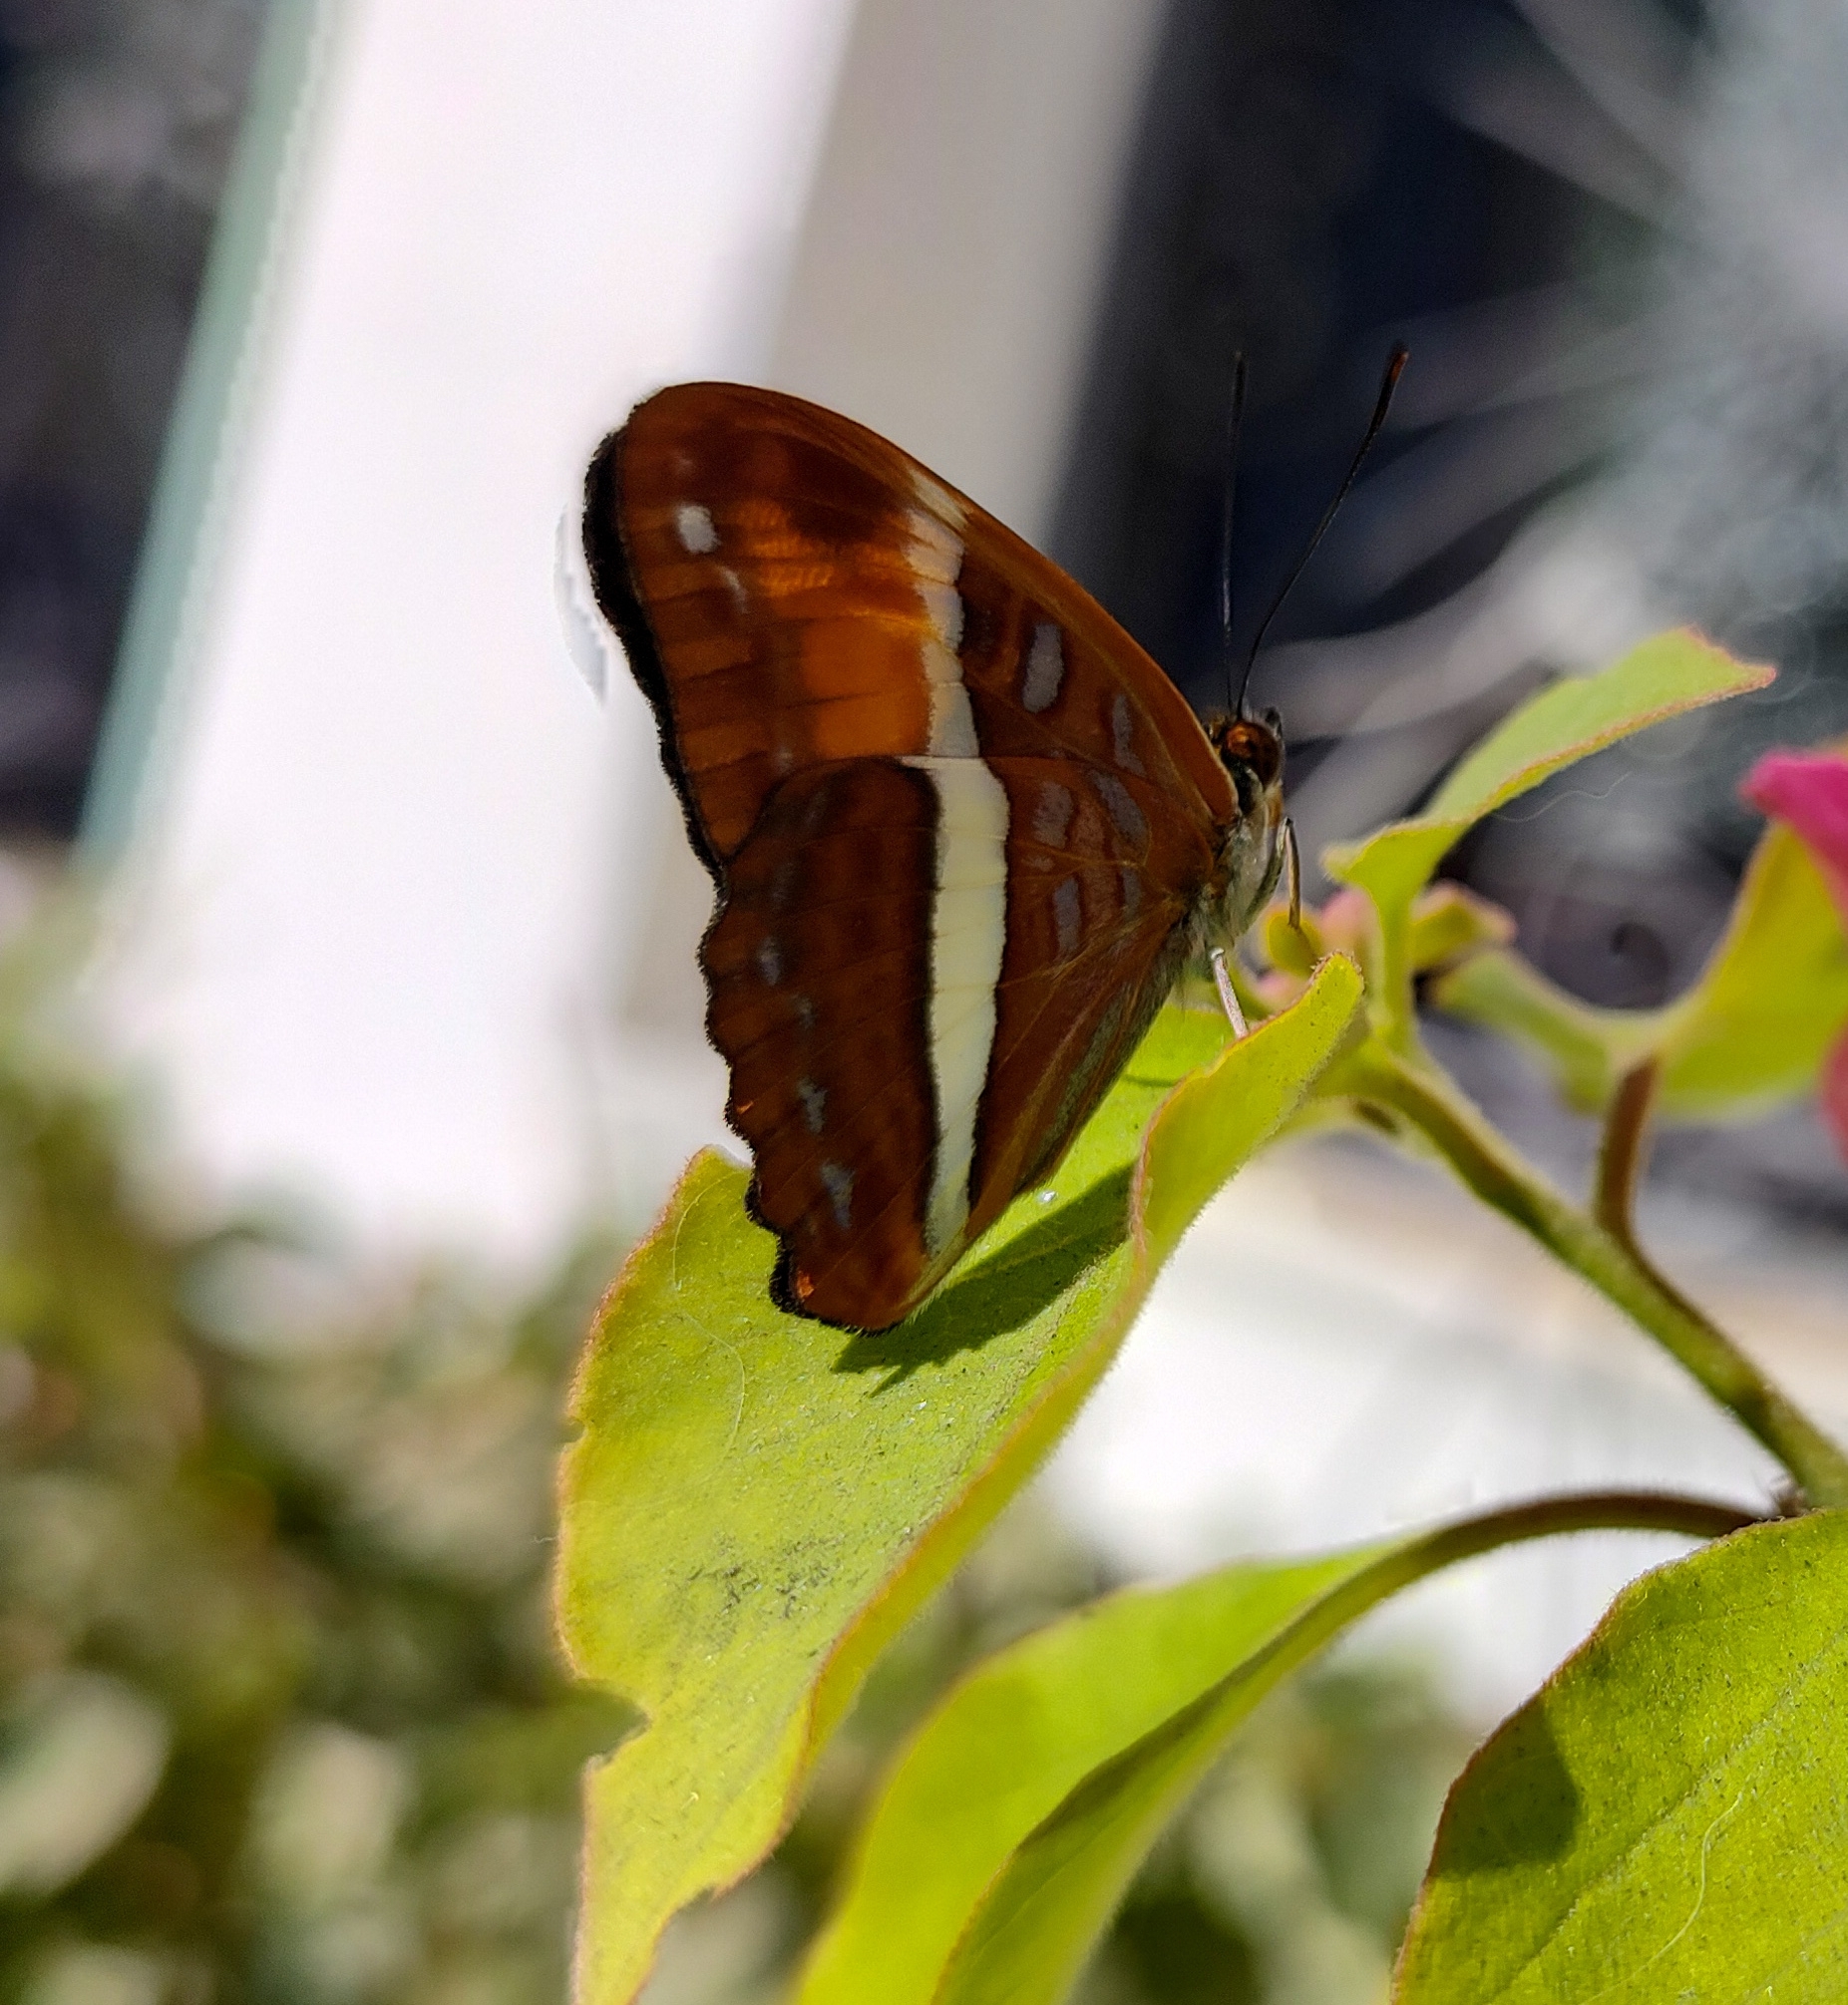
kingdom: Animalia
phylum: Arthropoda
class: Insecta
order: Lepidoptera
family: Nymphalidae
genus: Limenitis
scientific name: Limenitis cocala
